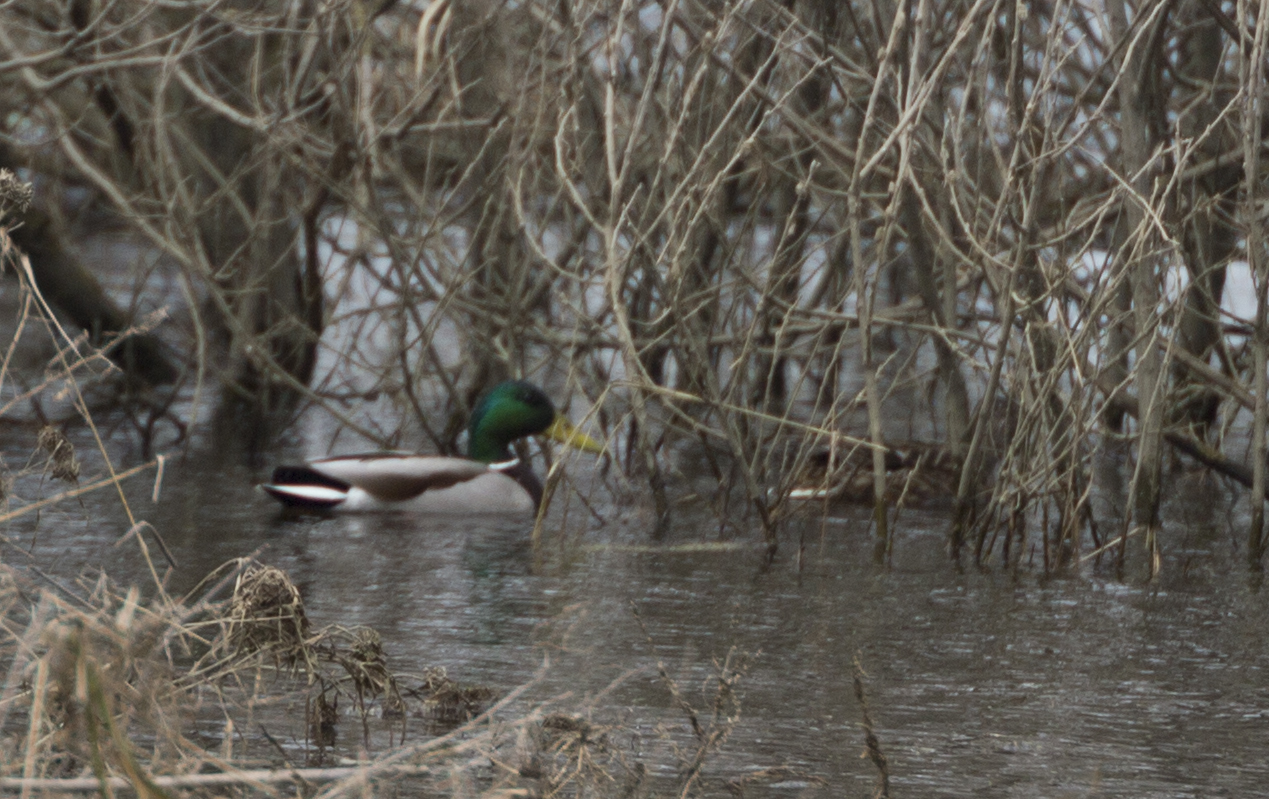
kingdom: Animalia
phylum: Chordata
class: Aves
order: Anseriformes
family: Anatidae
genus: Anas
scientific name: Anas platyrhynchos
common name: Mallard
